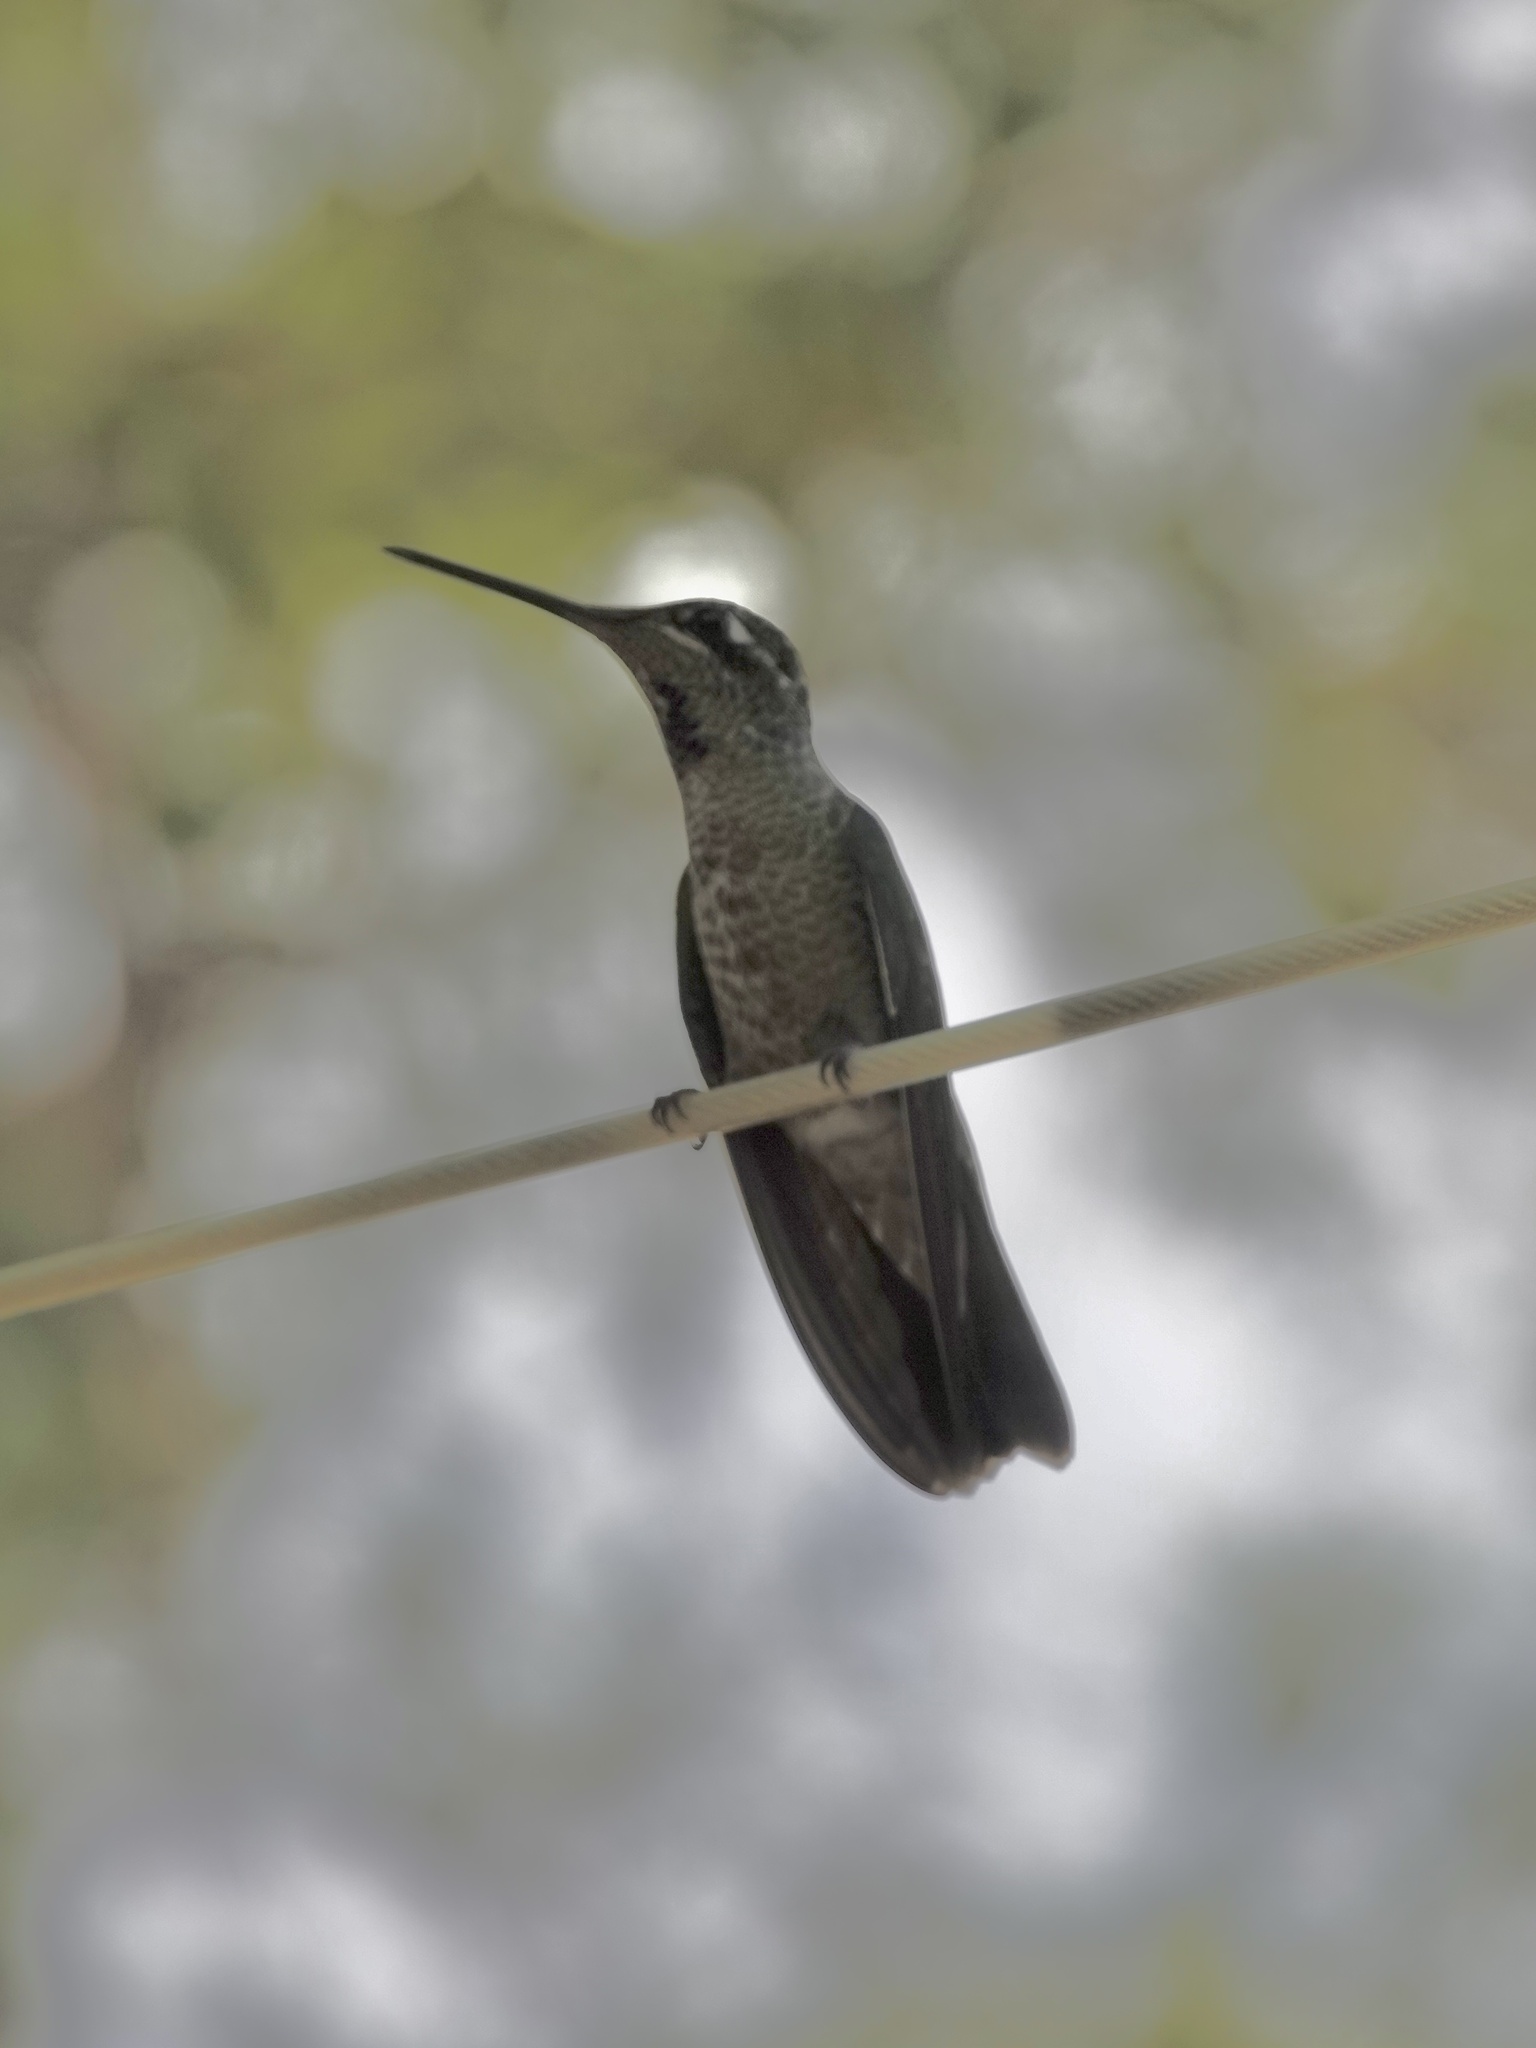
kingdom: Animalia
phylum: Chordata
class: Aves
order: Apodiformes
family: Trochilidae
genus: Eugenes
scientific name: Eugenes fulgens
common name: Magnificent hummingbird
